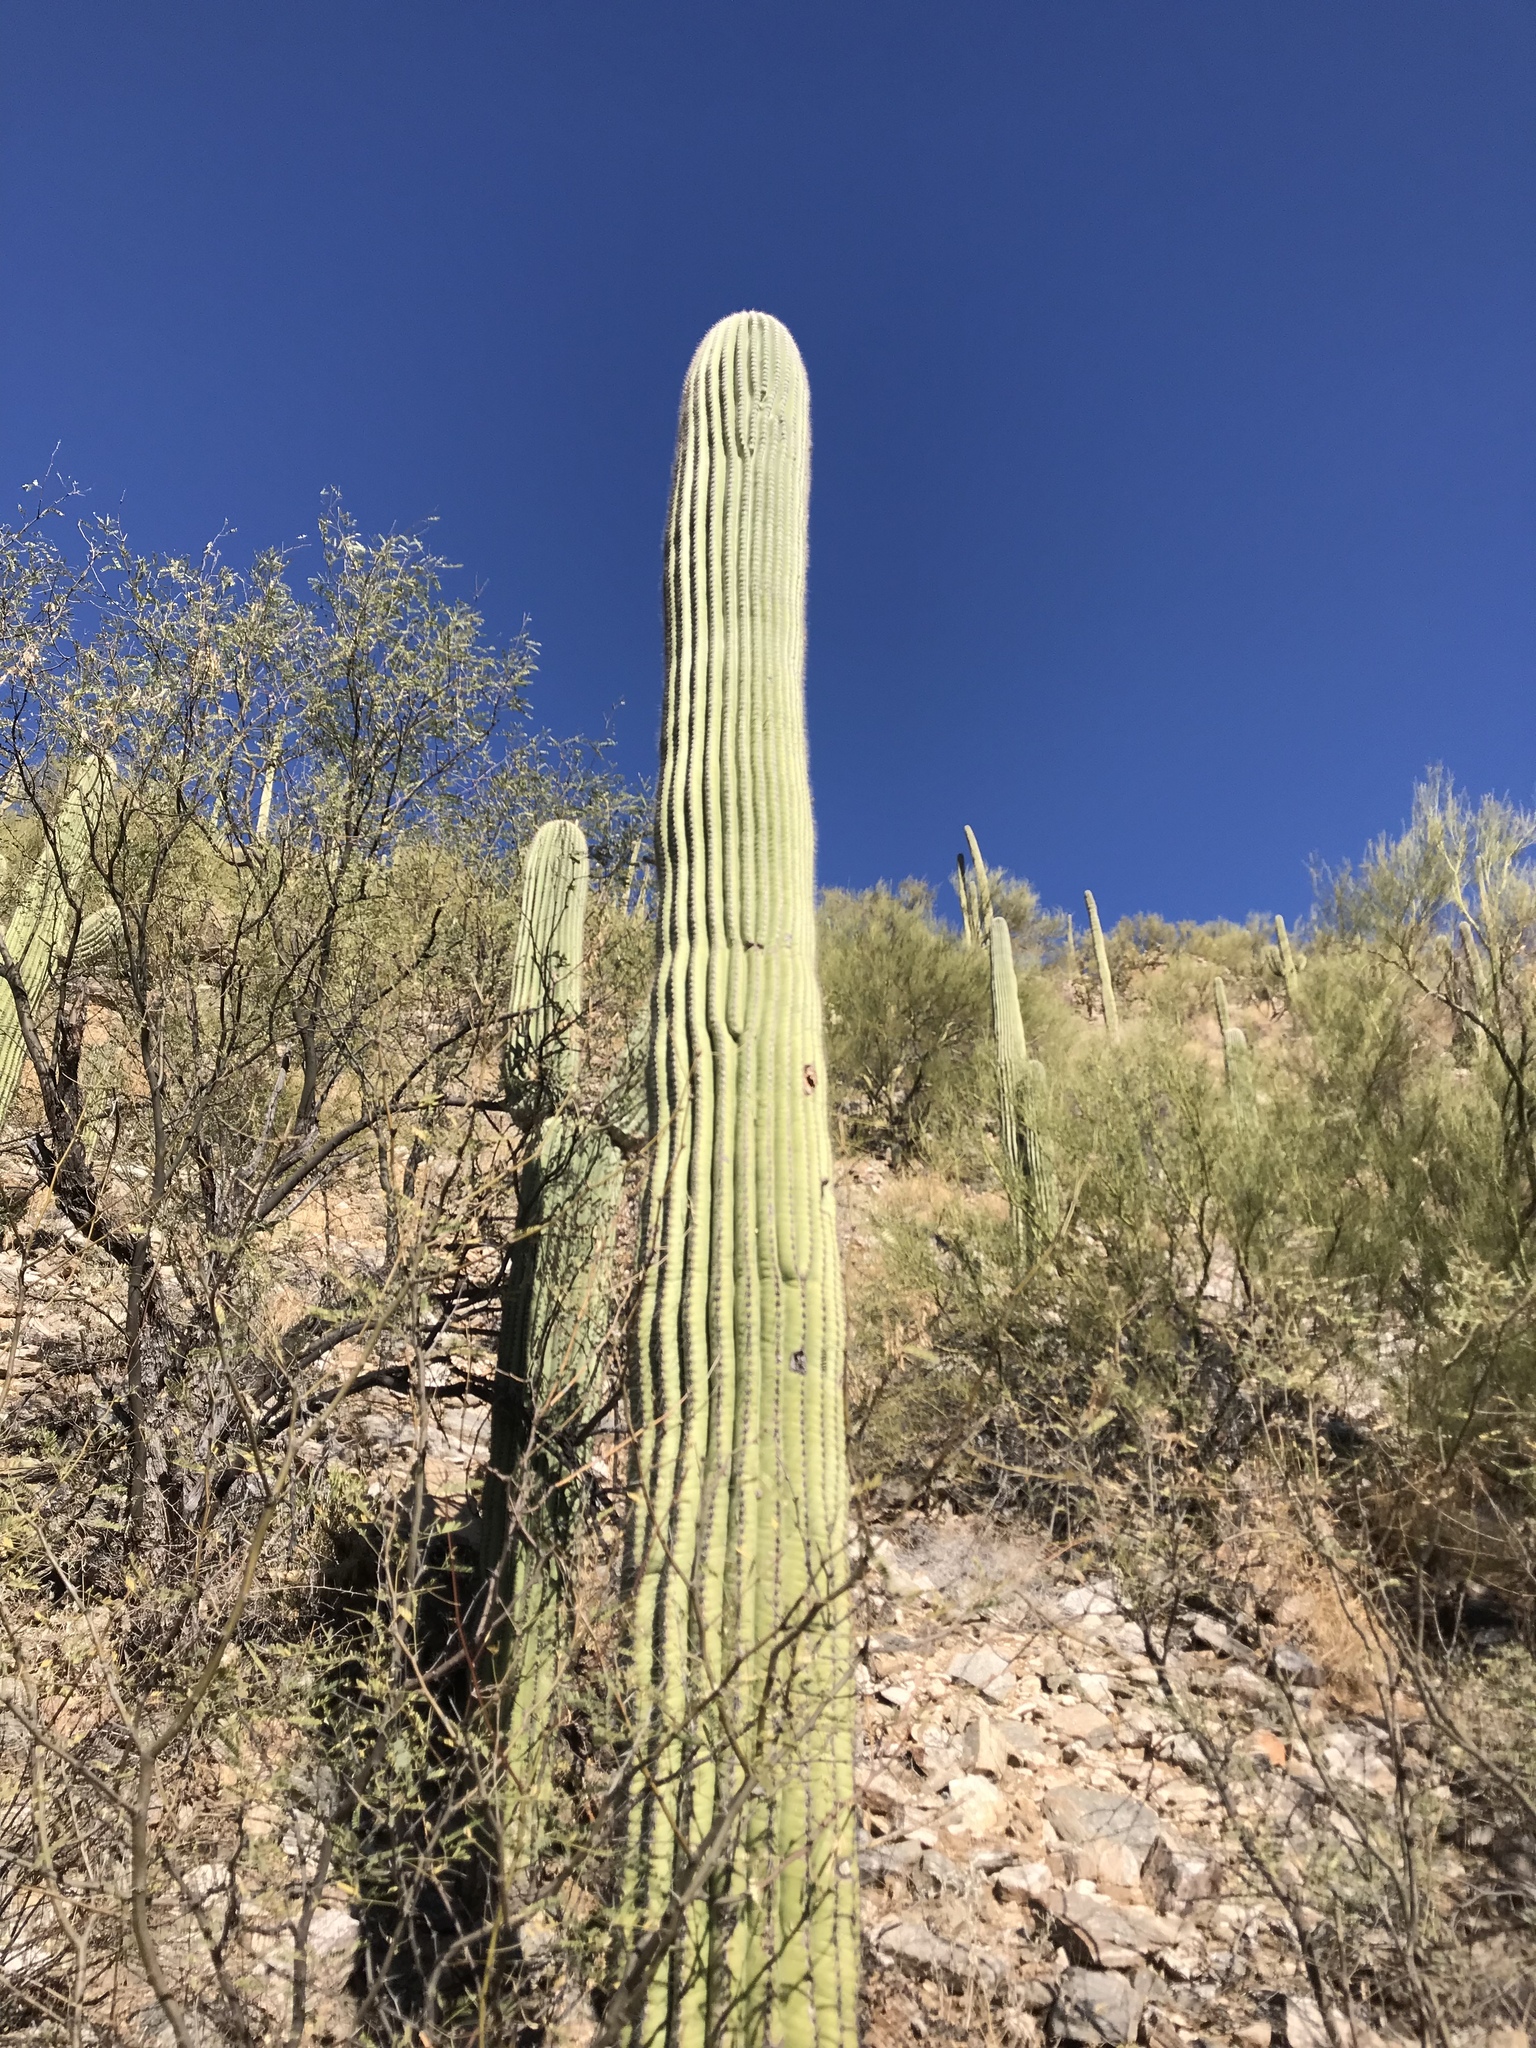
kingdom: Plantae
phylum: Tracheophyta
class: Magnoliopsida
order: Caryophyllales
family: Cactaceae
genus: Carnegiea
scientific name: Carnegiea gigantea
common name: Saguaro
